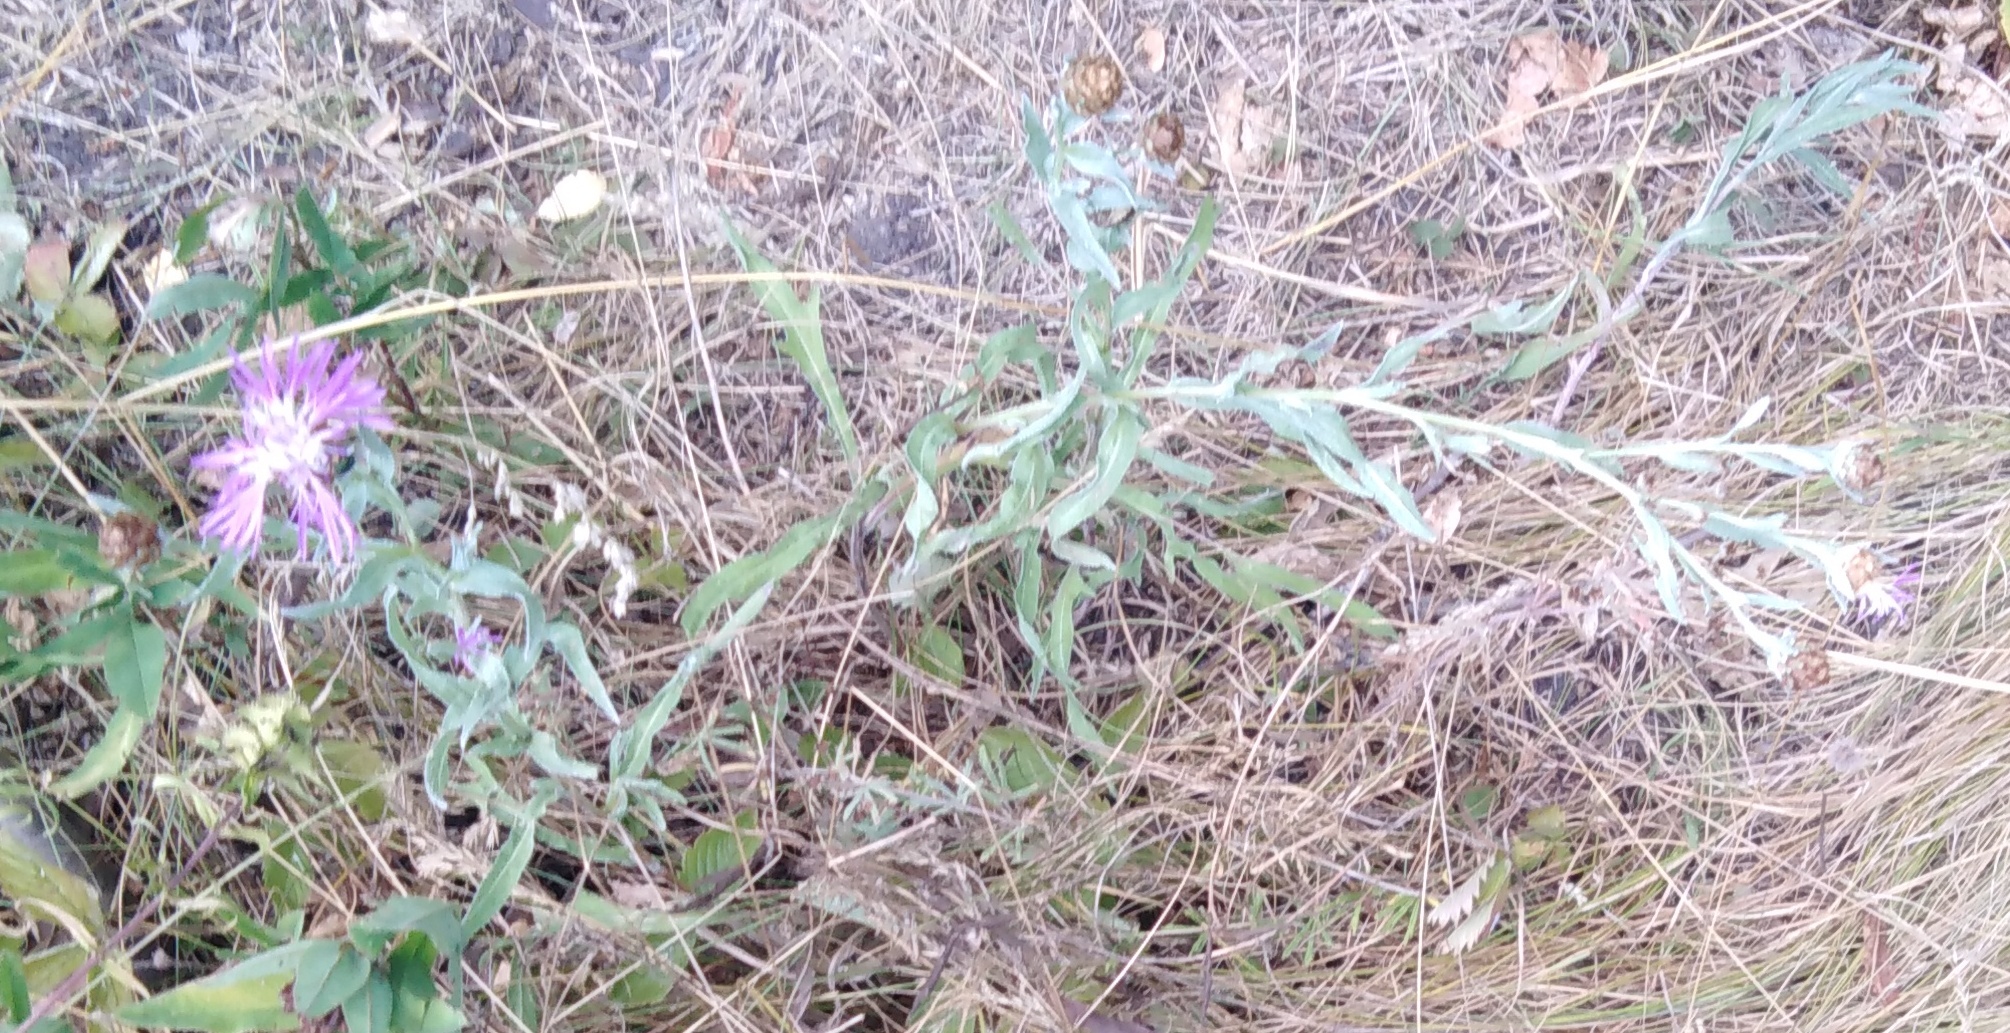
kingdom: Plantae
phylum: Tracheophyta
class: Magnoliopsida
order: Asterales
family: Asteraceae
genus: Centaurea
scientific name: Centaurea jacea
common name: Brown knapweed
